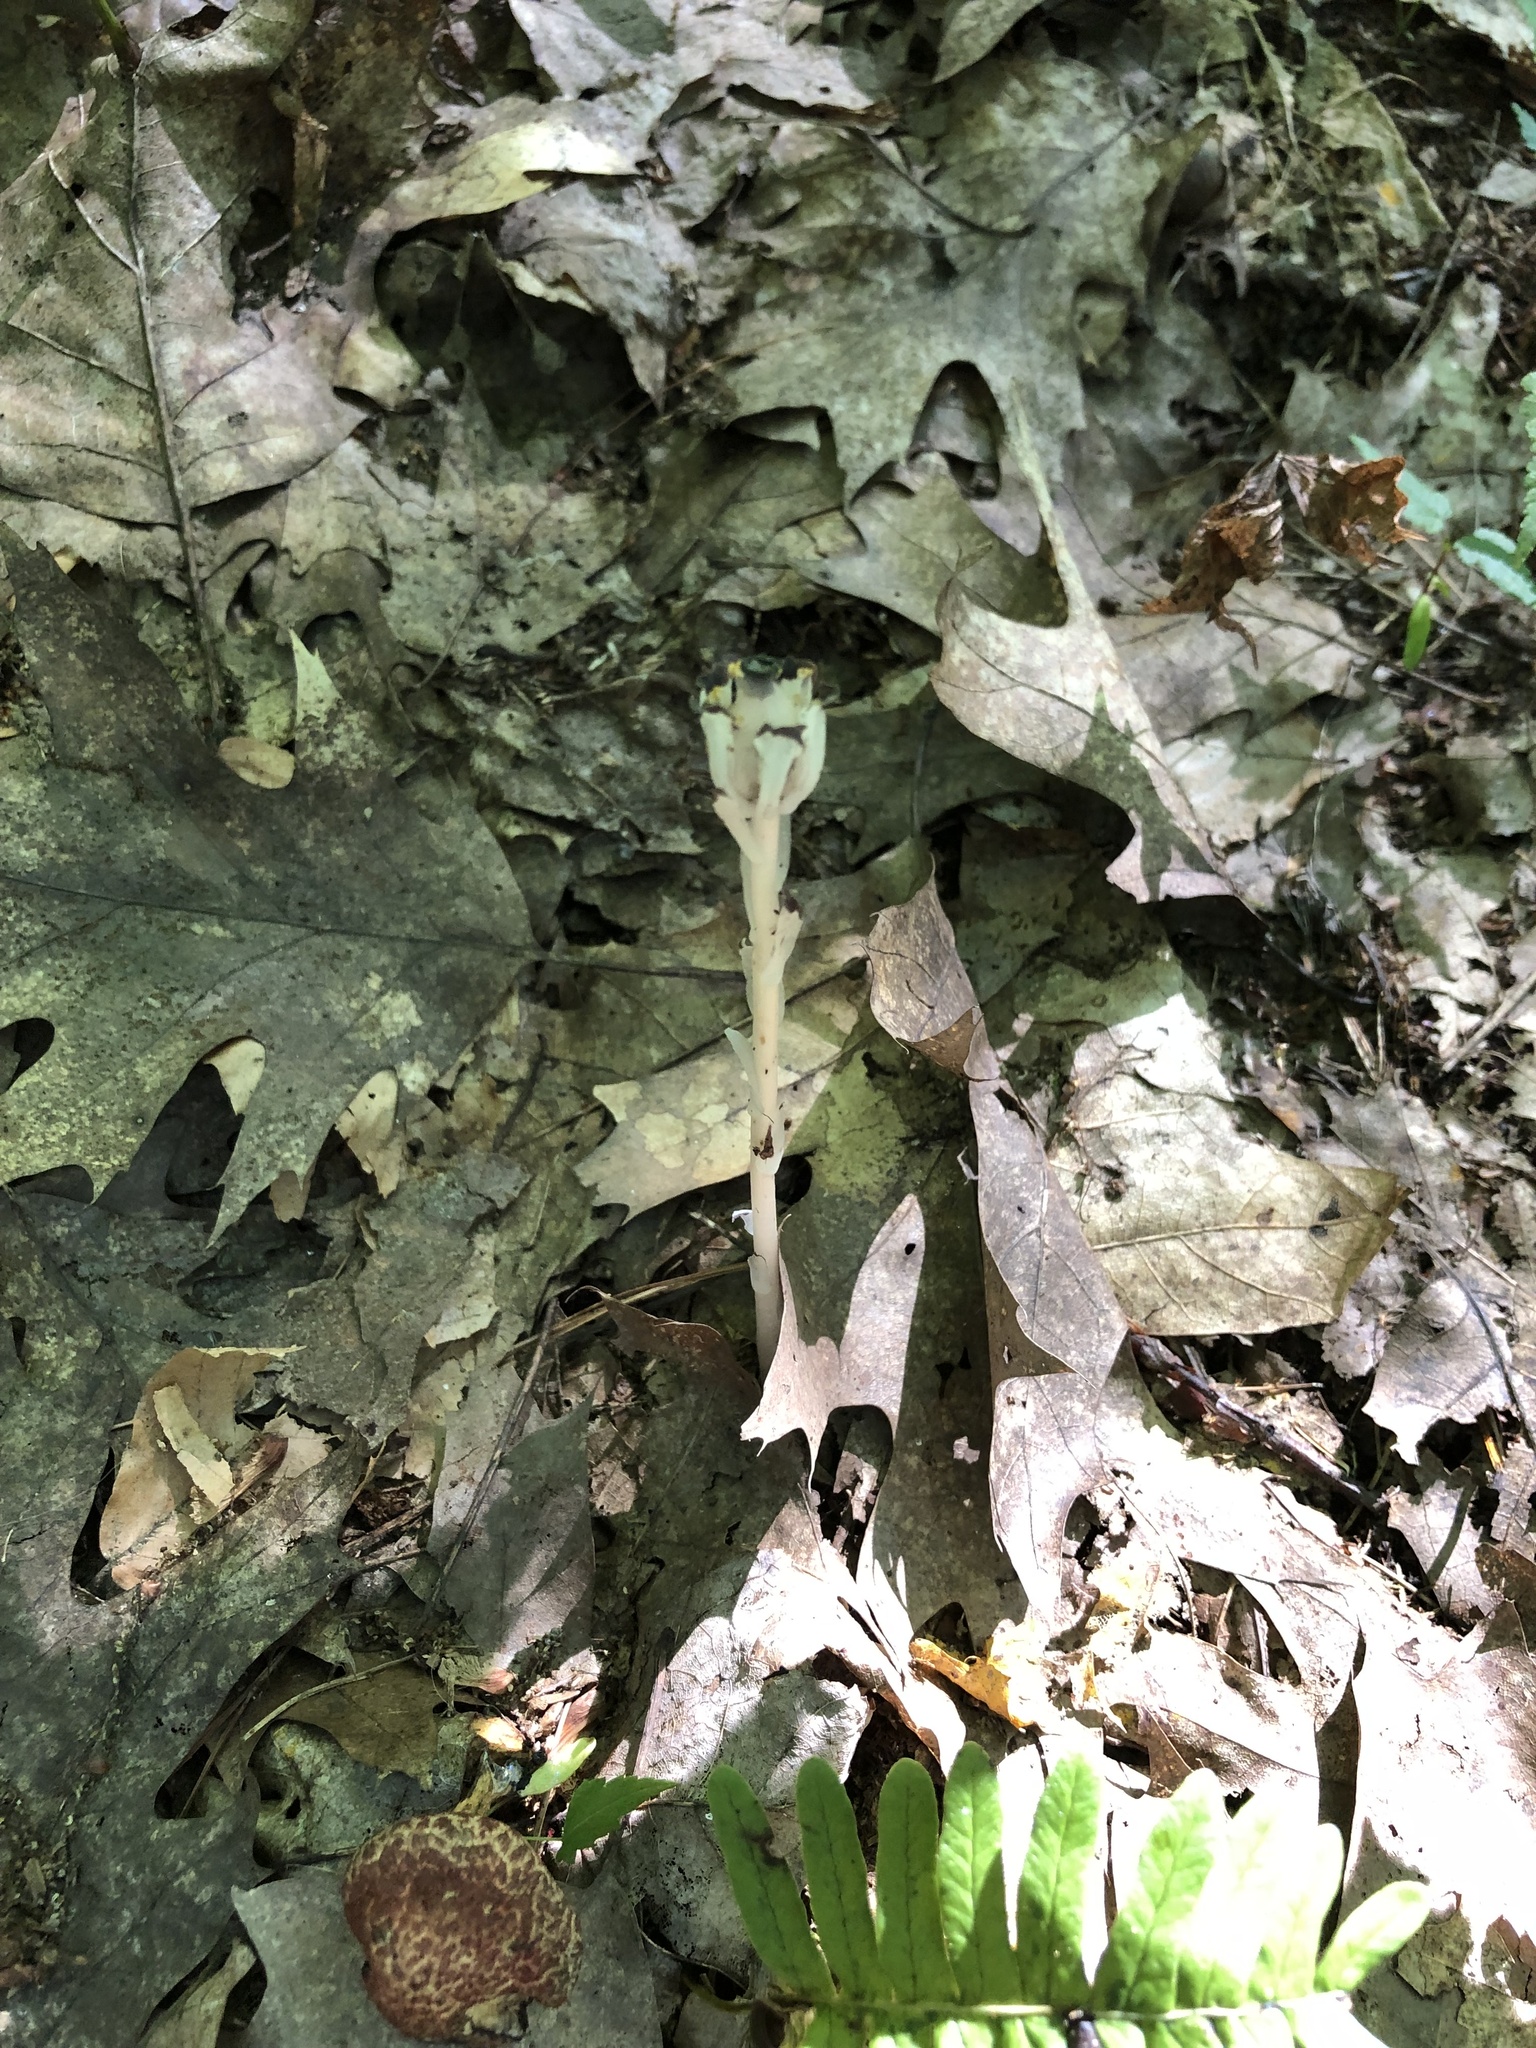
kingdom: Plantae
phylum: Tracheophyta
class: Magnoliopsida
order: Ericales
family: Ericaceae
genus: Monotropa
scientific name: Monotropa uniflora
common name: Convulsion root
